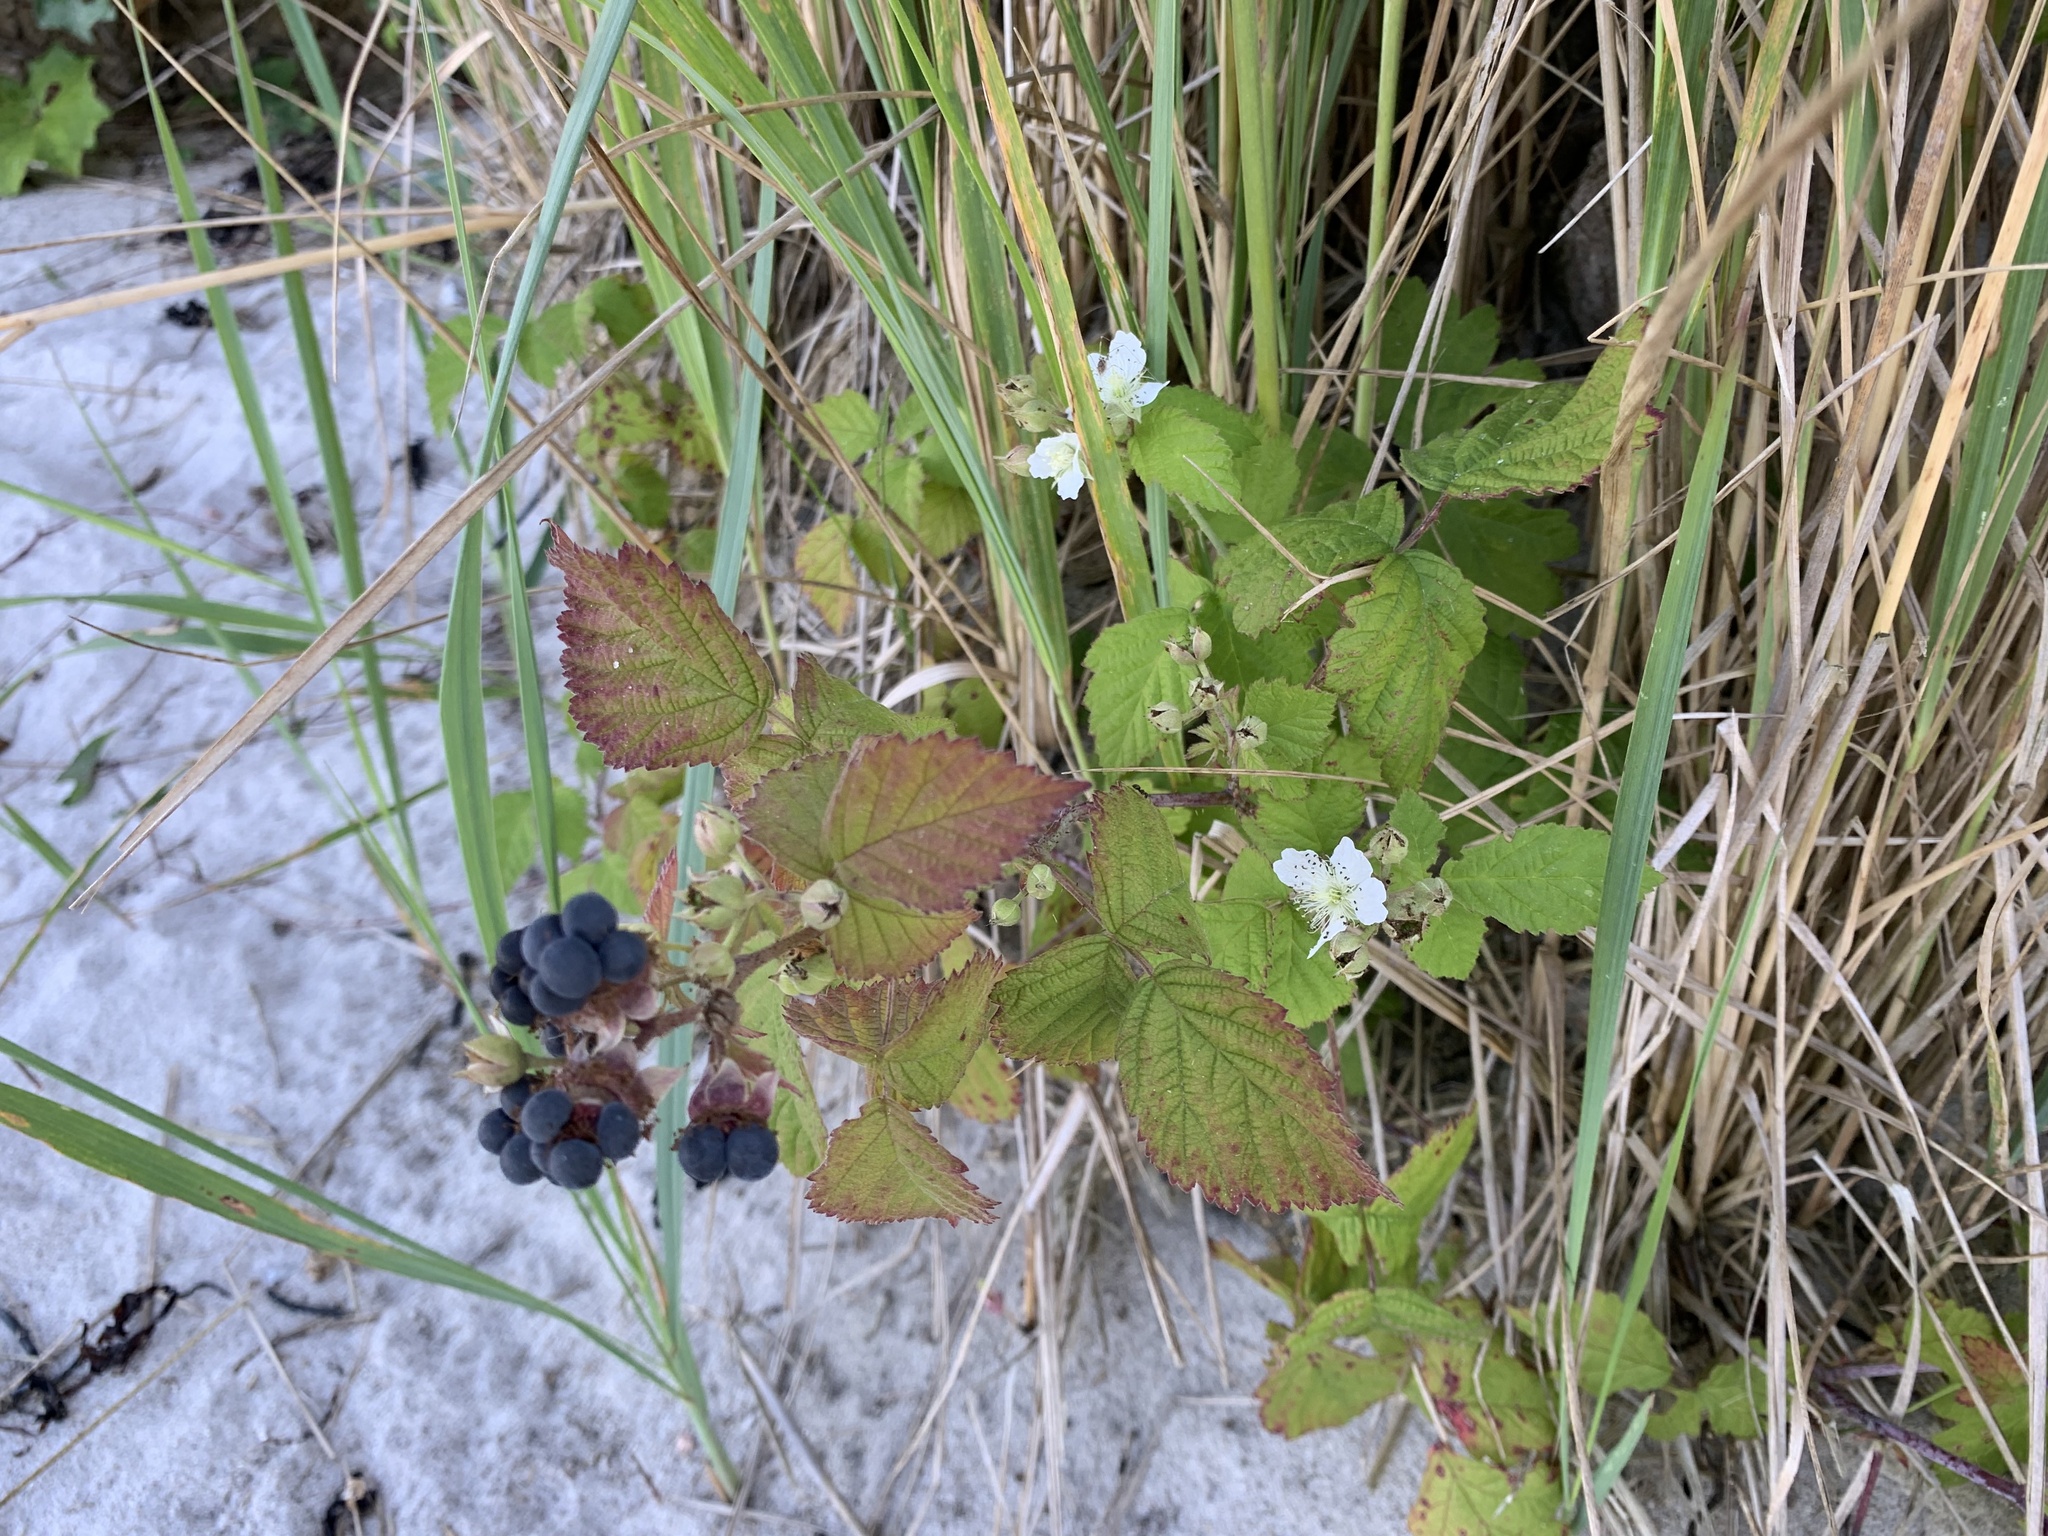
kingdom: Plantae
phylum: Tracheophyta
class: Magnoliopsida
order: Rosales
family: Rosaceae
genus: Rubus
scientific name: Rubus caesius
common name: Dewberry
